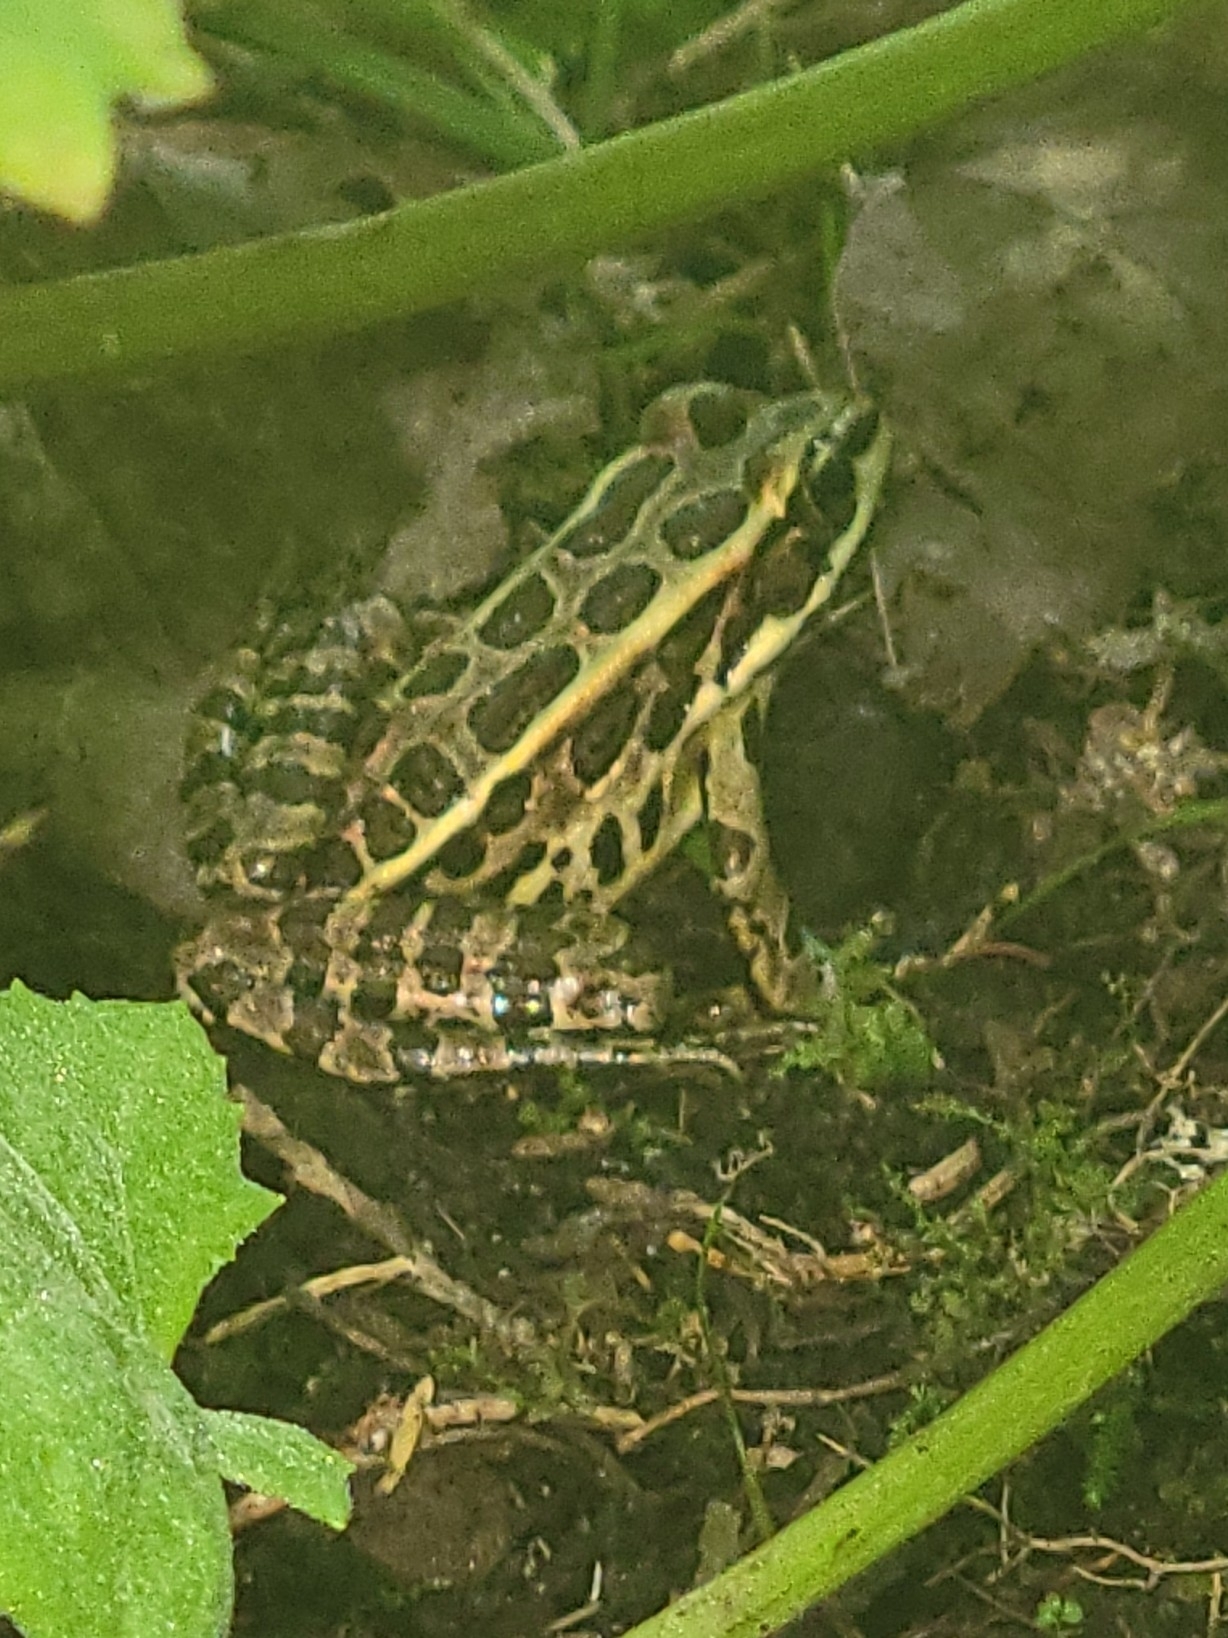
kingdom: Animalia
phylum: Chordata
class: Amphibia
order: Anura
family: Ranidae
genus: Lithobates
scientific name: Lithobates palustris
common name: Pickerel frog
